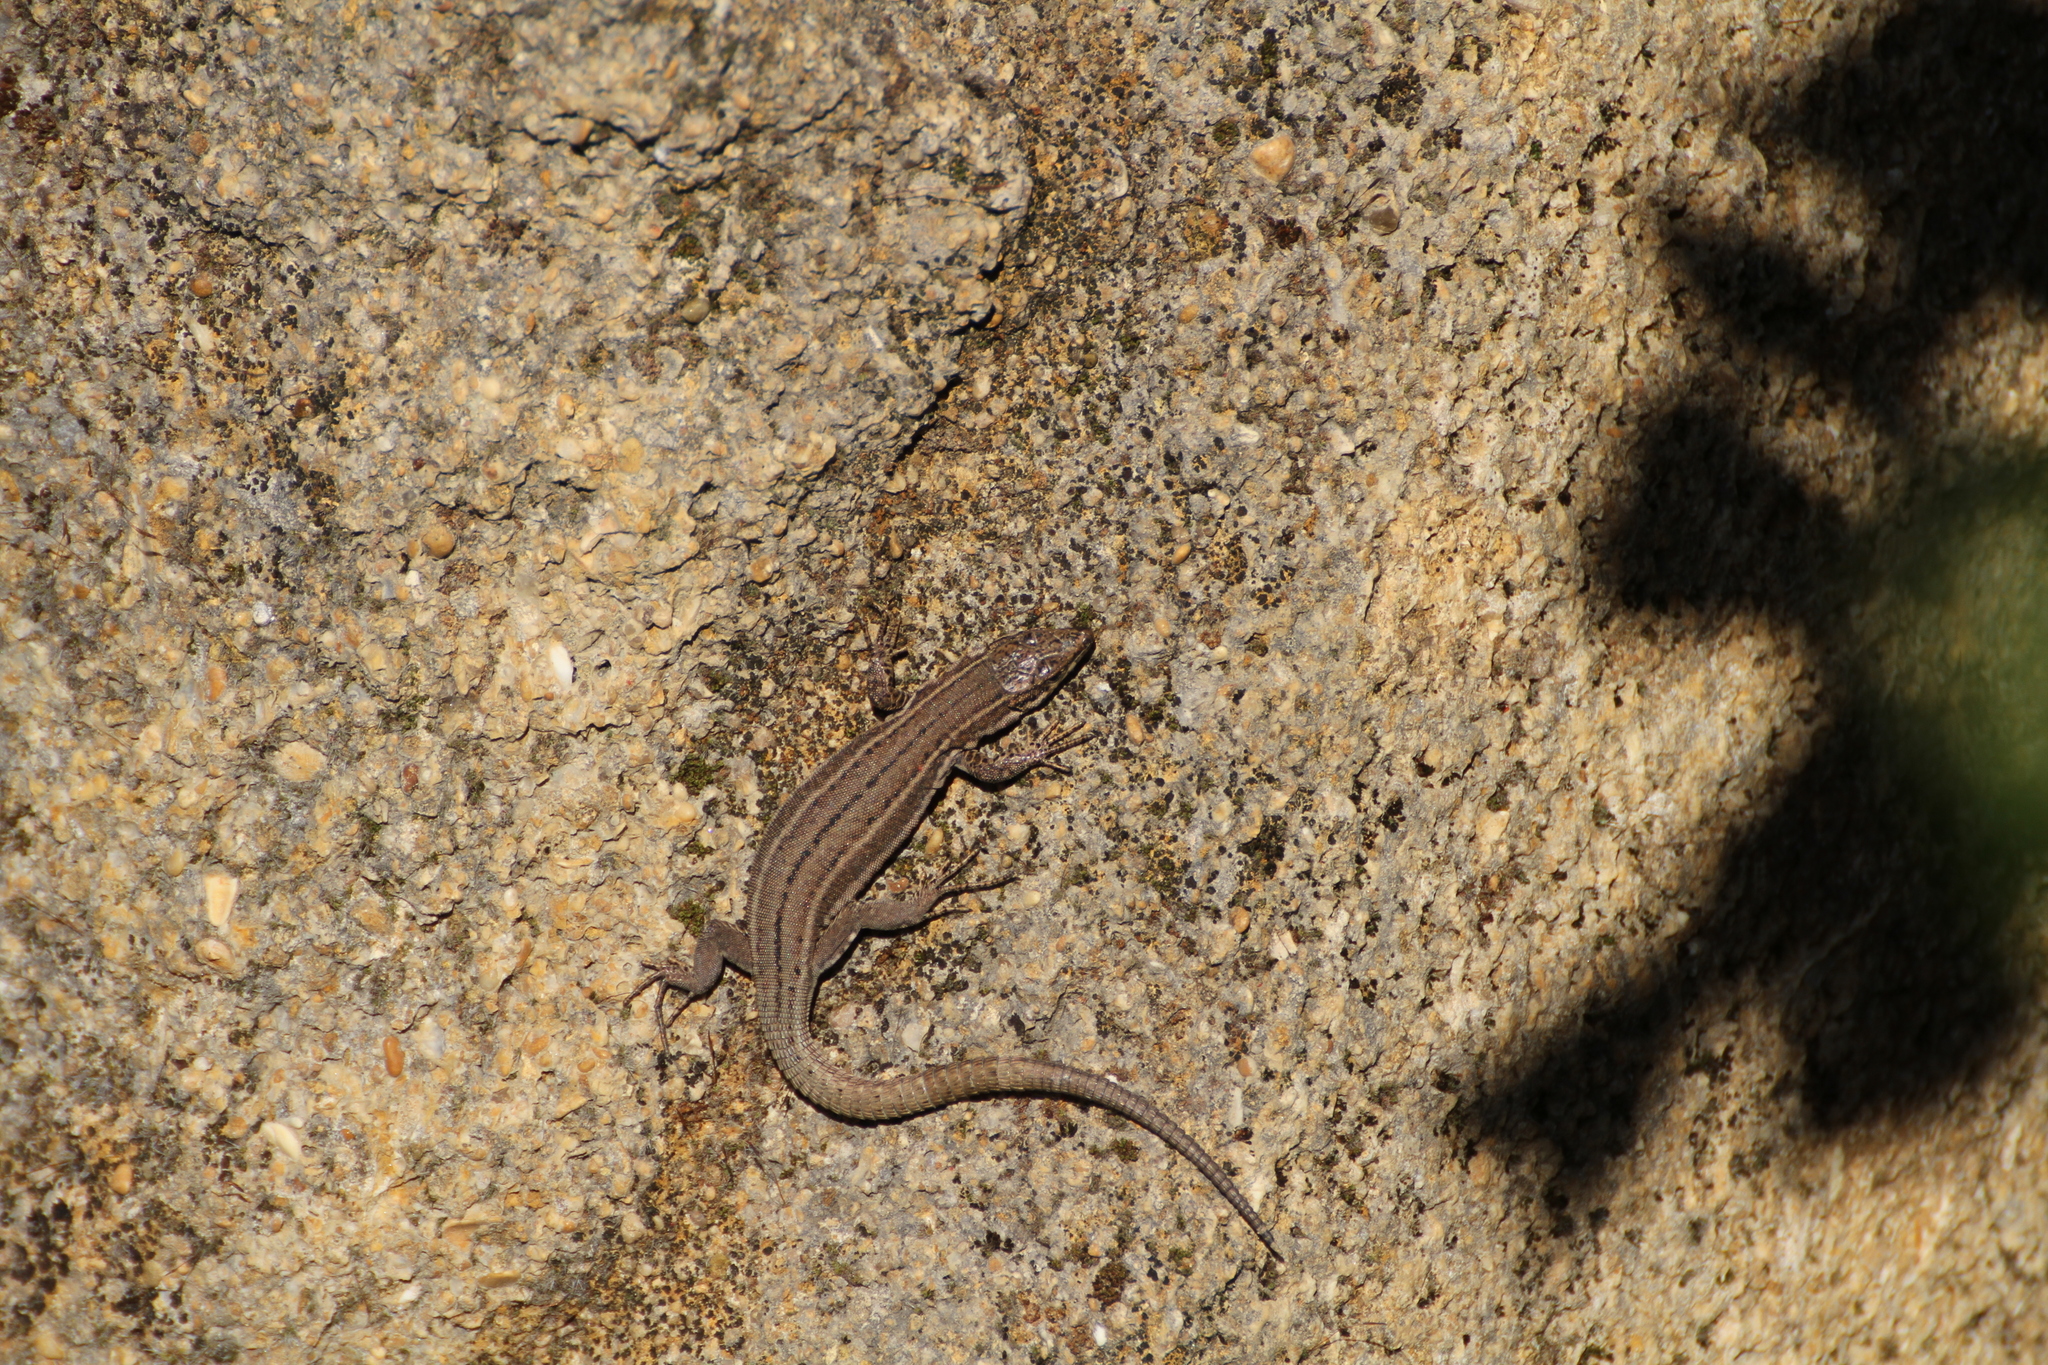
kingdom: Animalia
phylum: Chordata
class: Squamata
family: Lacertidae
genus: Podarcis
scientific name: Podarcis liolepis
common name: Catalonian wall lizard
